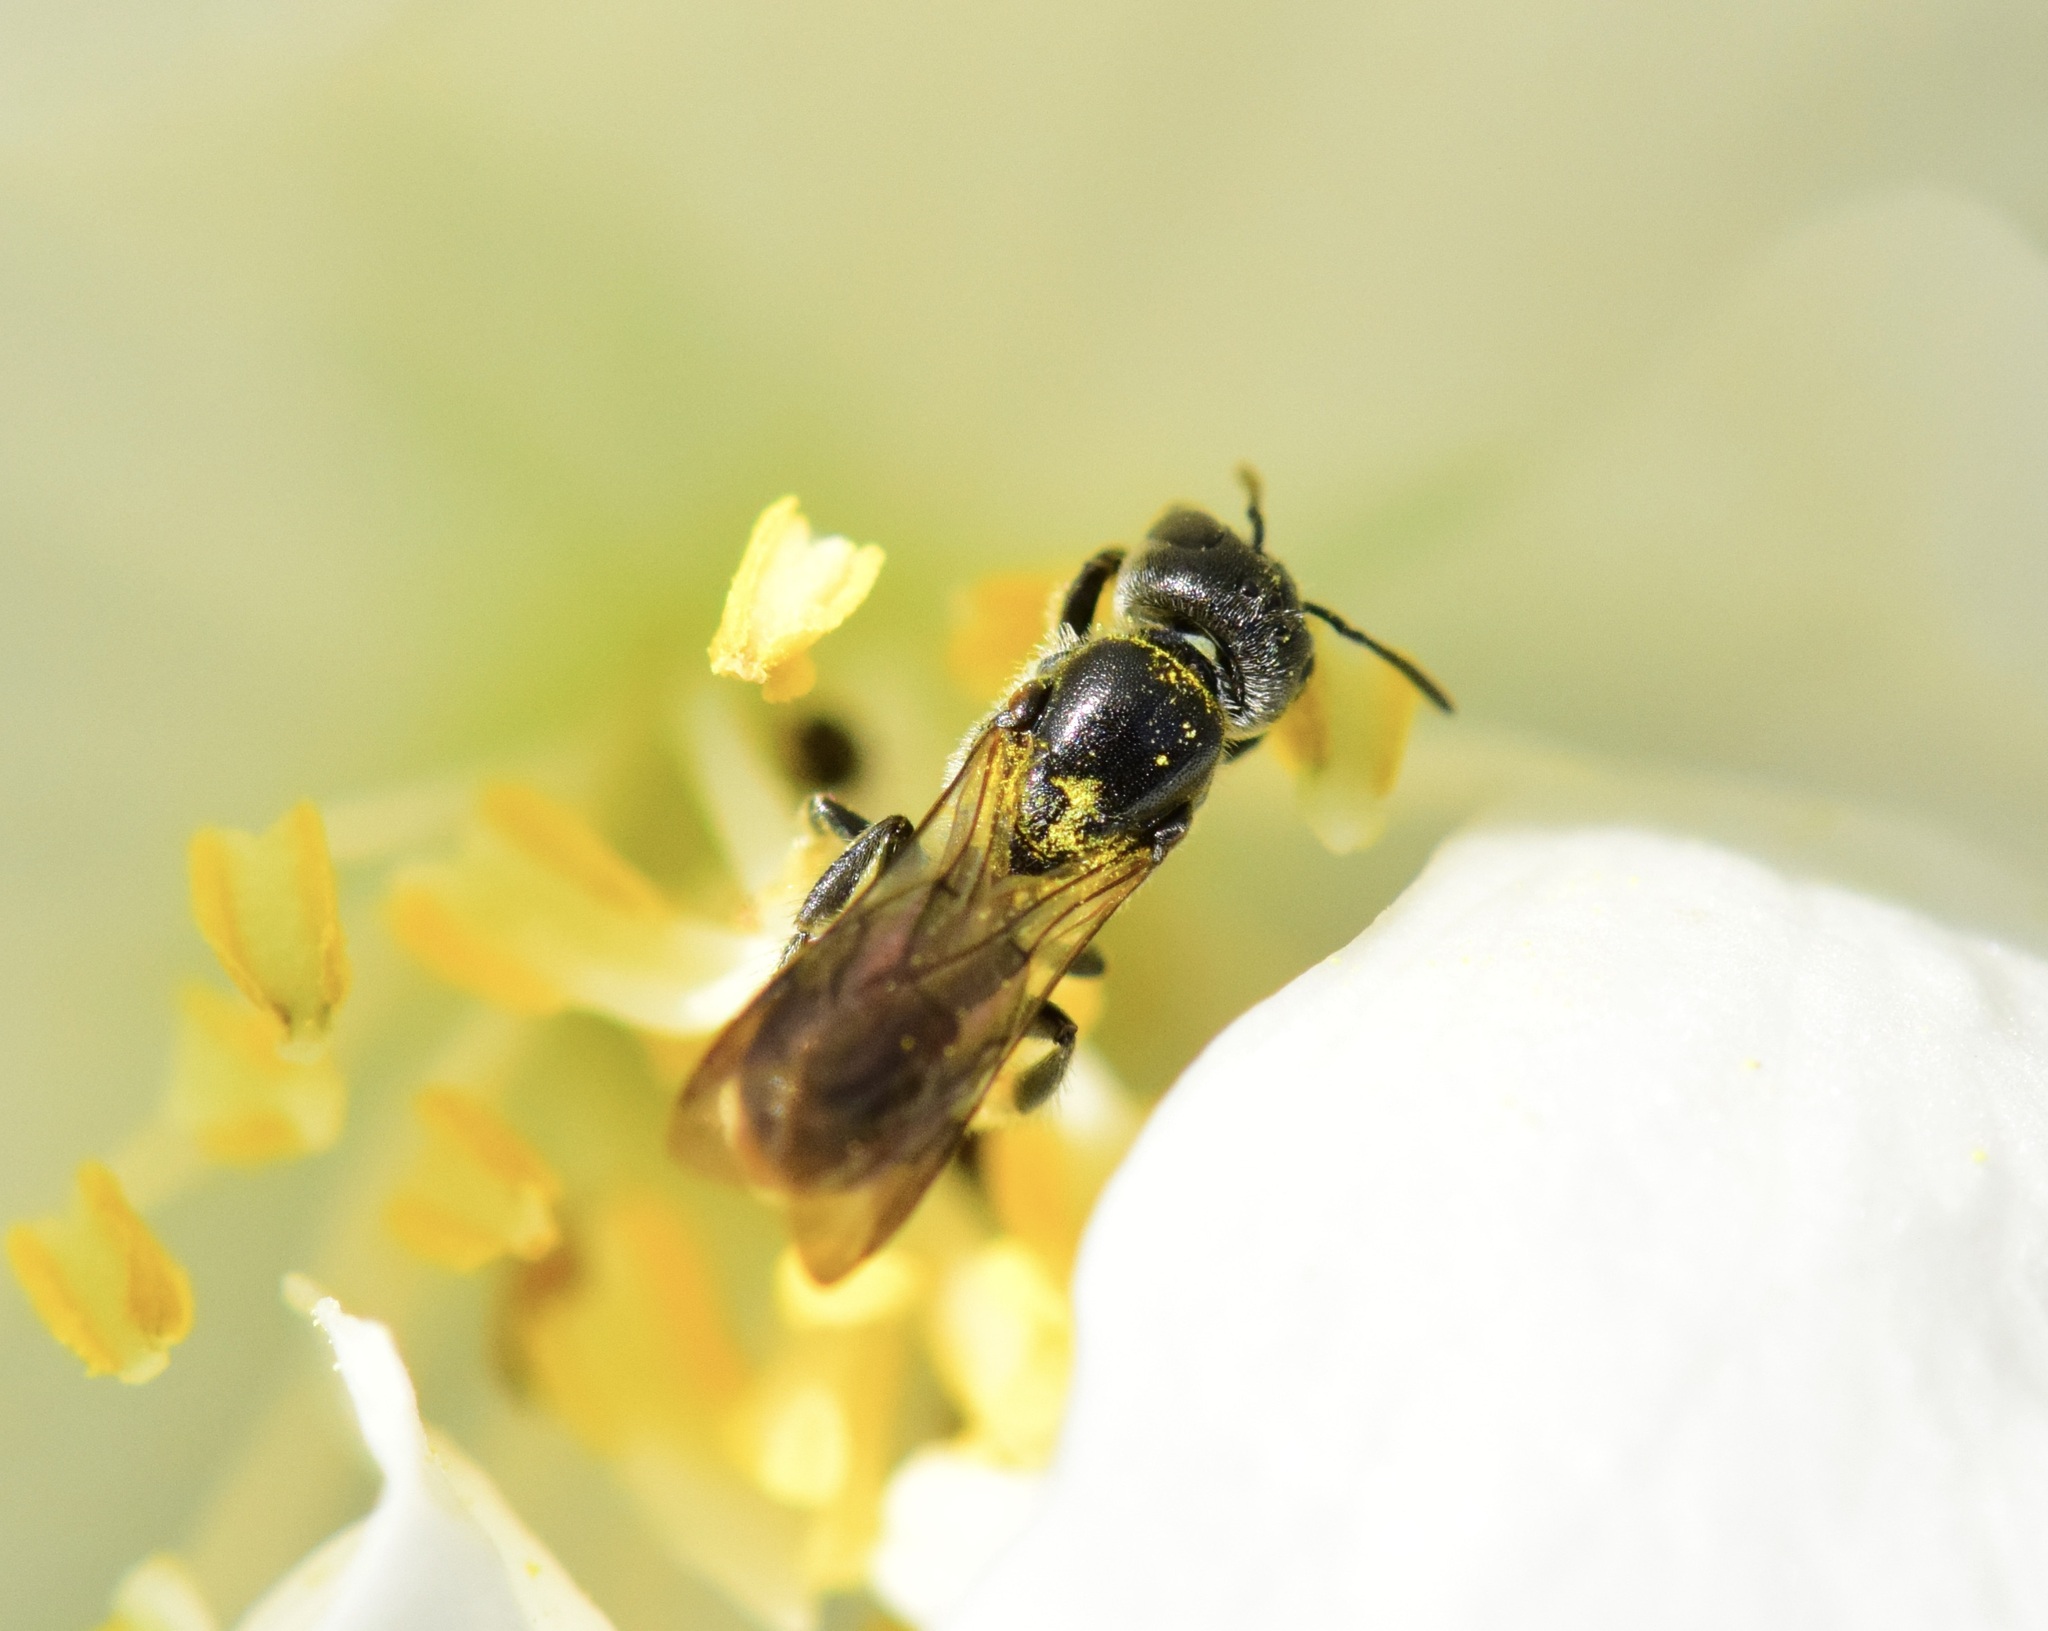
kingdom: Animalia
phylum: Arthropoda
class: Insecta
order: Hymenoptera
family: Megachilidae
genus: Chelostoma
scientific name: Chelostoma philadelphi
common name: Mock-orange scissor bee
